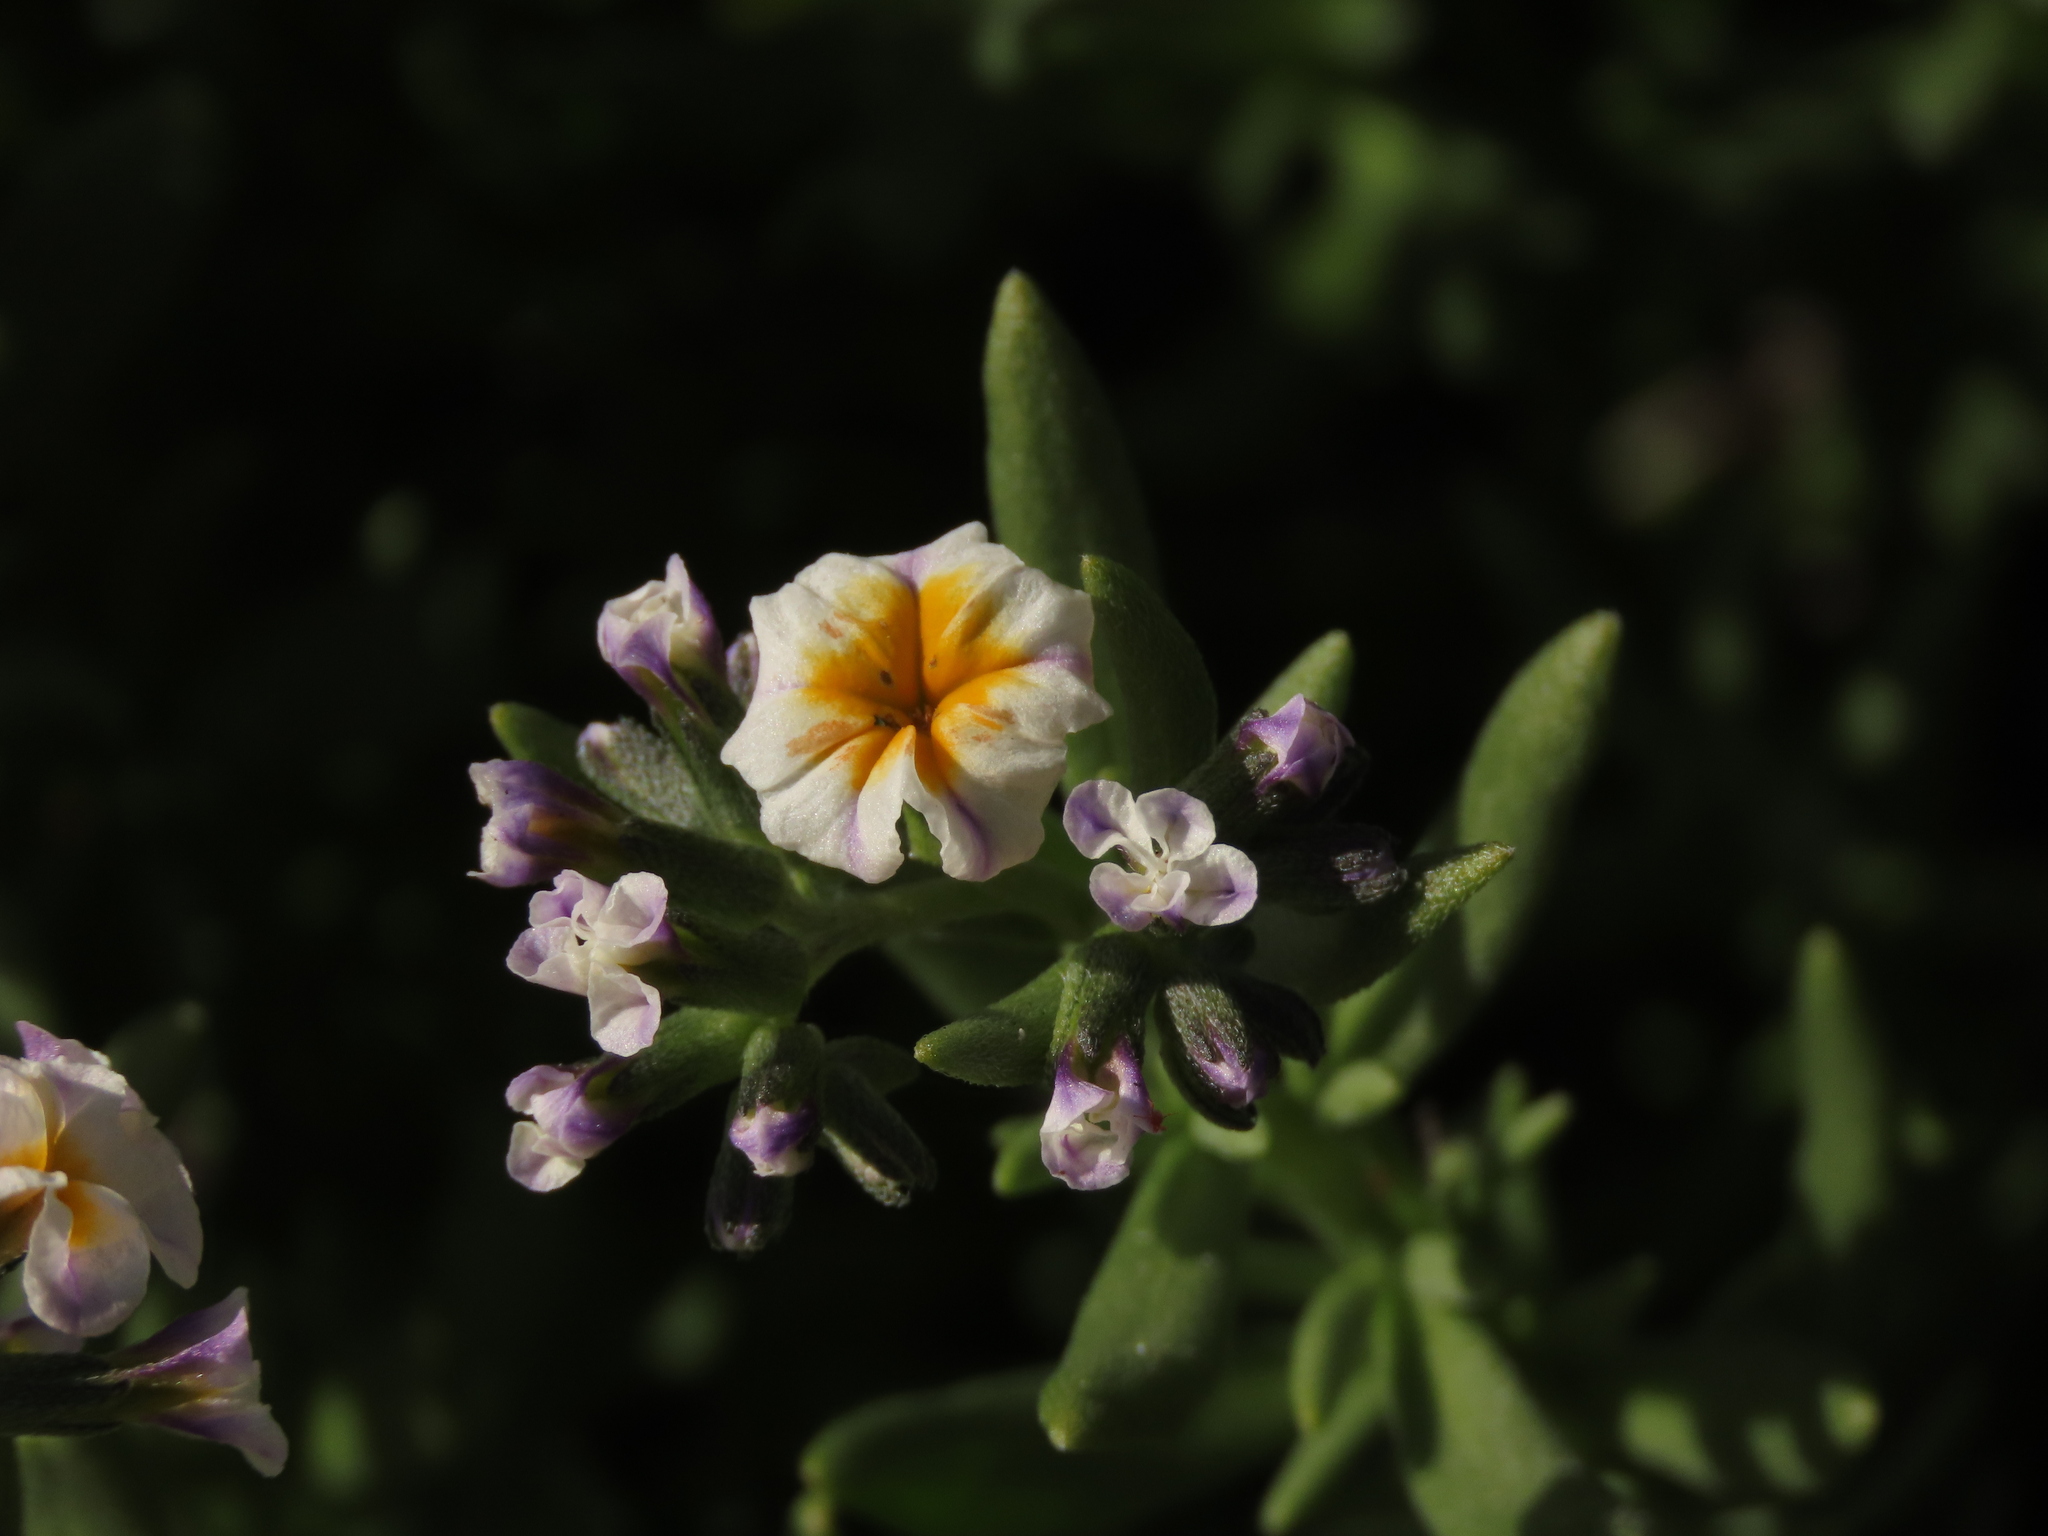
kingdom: Plantae
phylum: Tracheophyta
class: Magnoliopsida
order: Boraginales
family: Heliotropiaceae
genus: Heliotropium
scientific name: Heliotropium floridum
